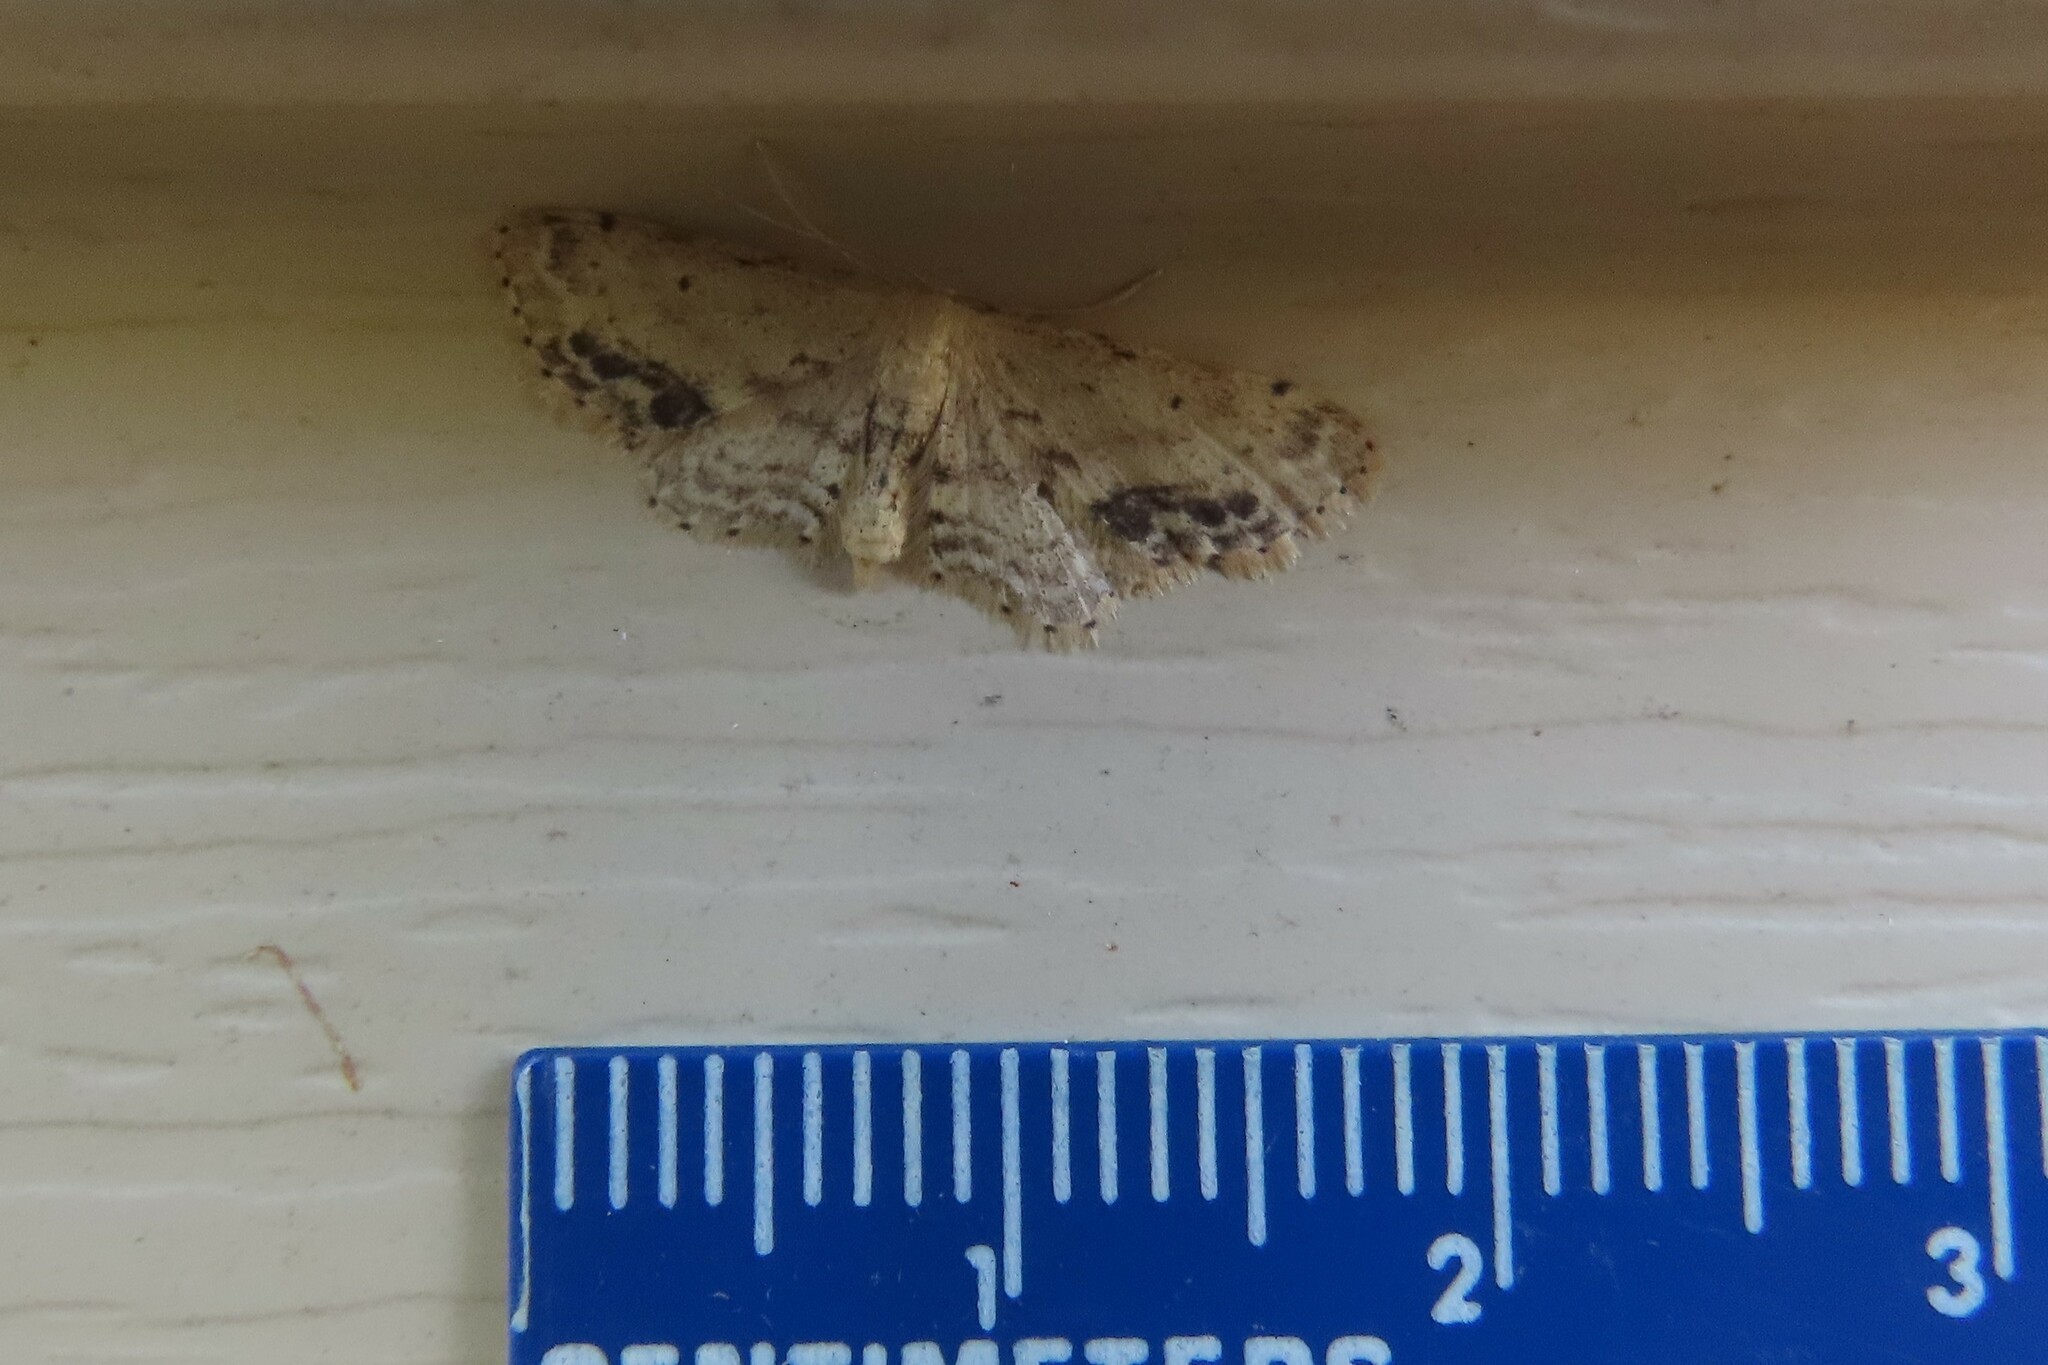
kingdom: Animalia
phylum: Arthropoda
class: Insecta
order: Lepidoptera
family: Geometridae
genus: Idaea
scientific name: Idaea dimidiata
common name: Single-dotted wave
